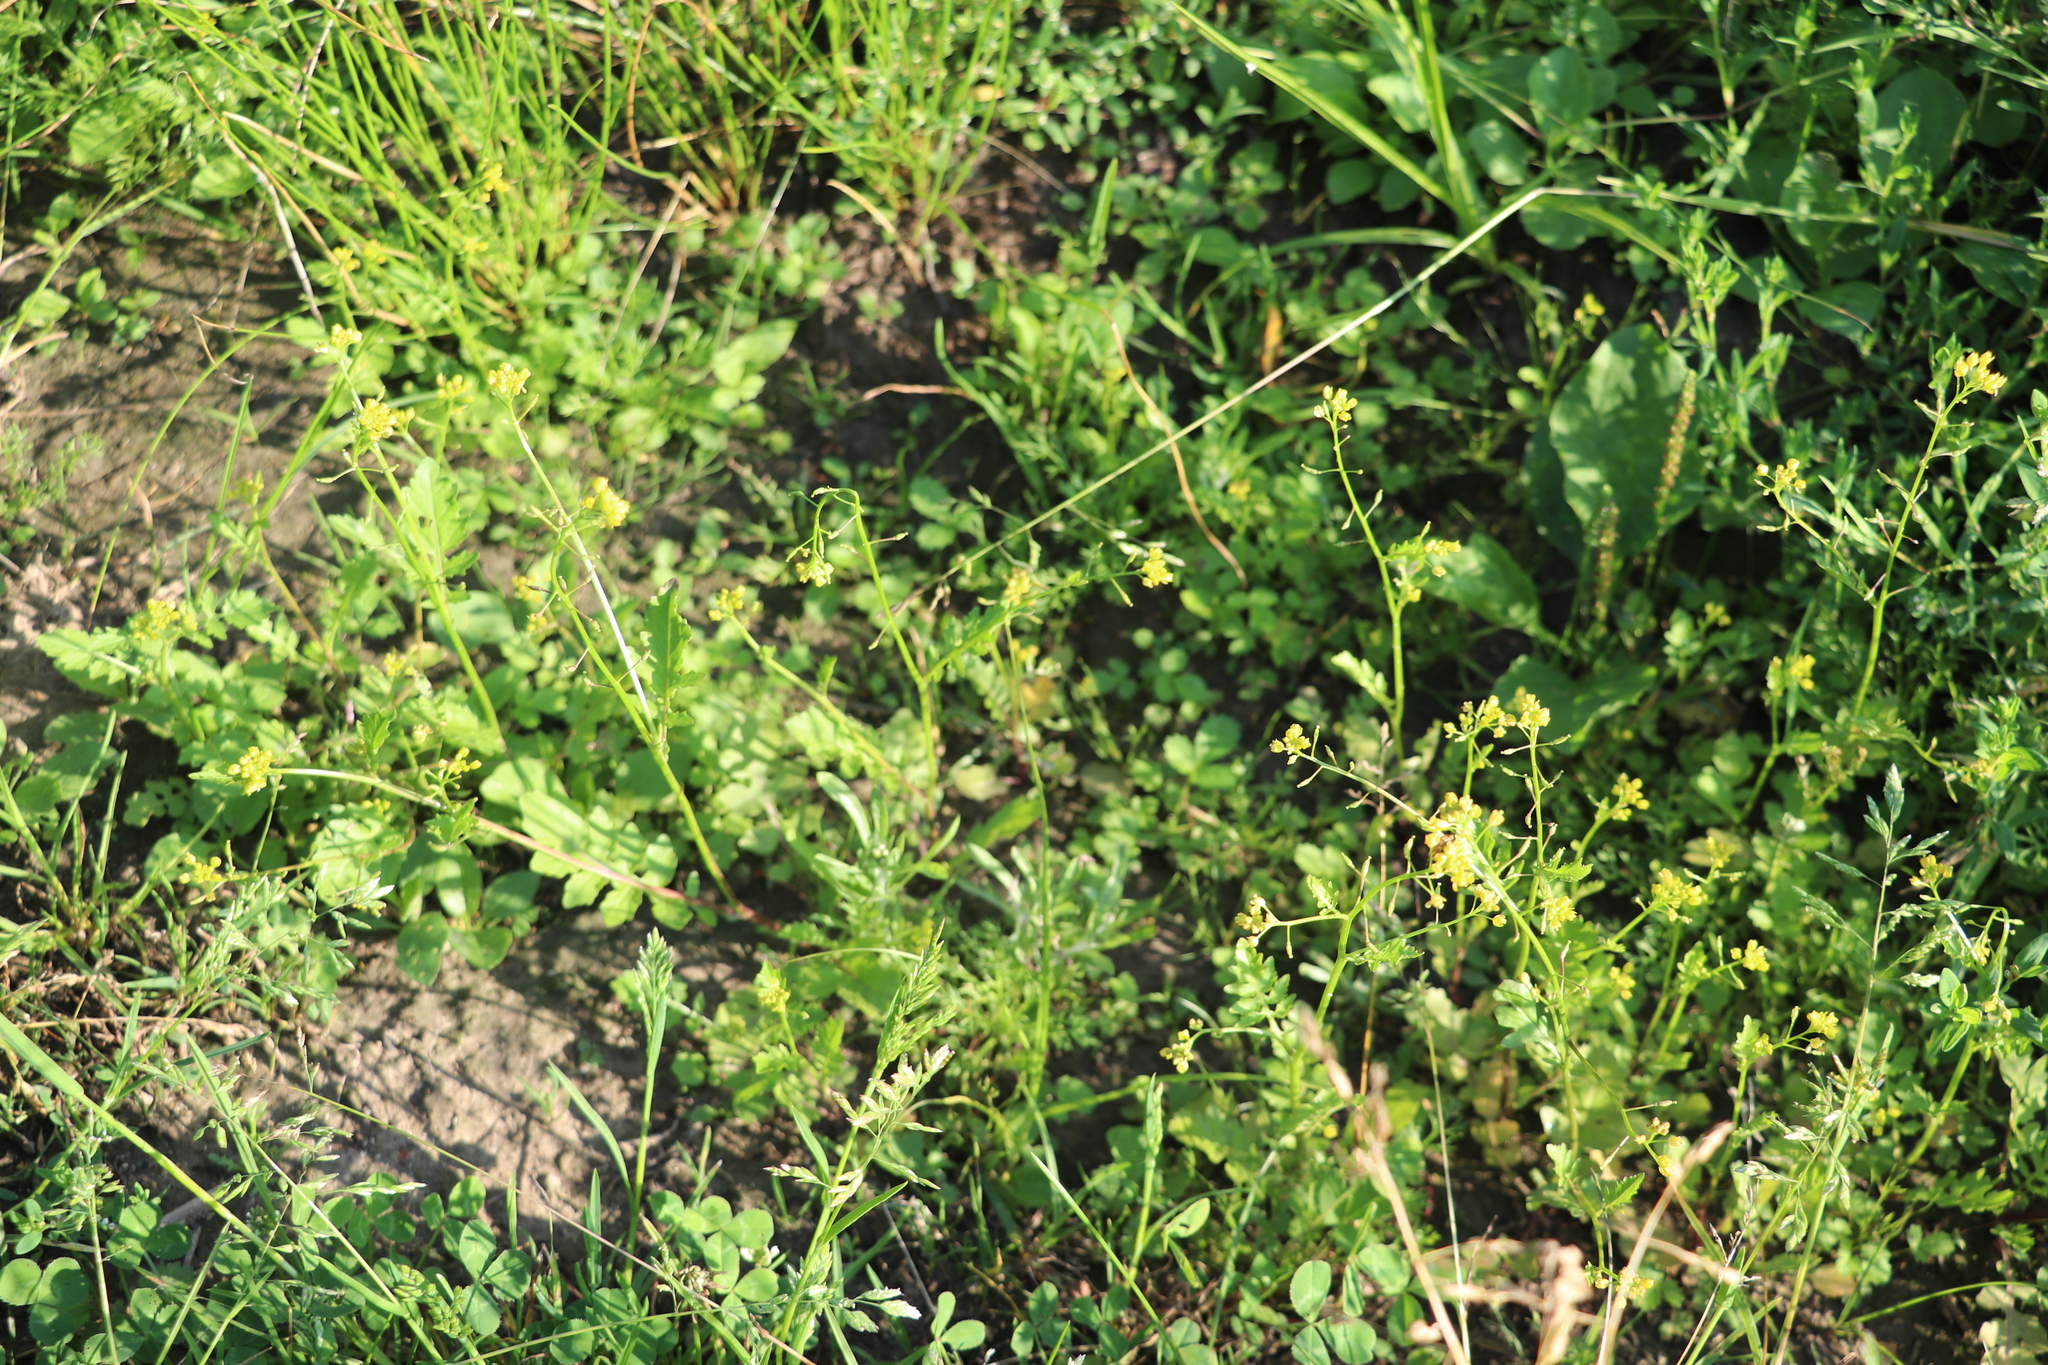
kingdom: Plantae
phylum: Tracheophyta
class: Magnoliopsida
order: Brassicales
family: Brassicaceae
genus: Rorippa
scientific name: Rorippa palustris
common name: Marsh yellow-cress
